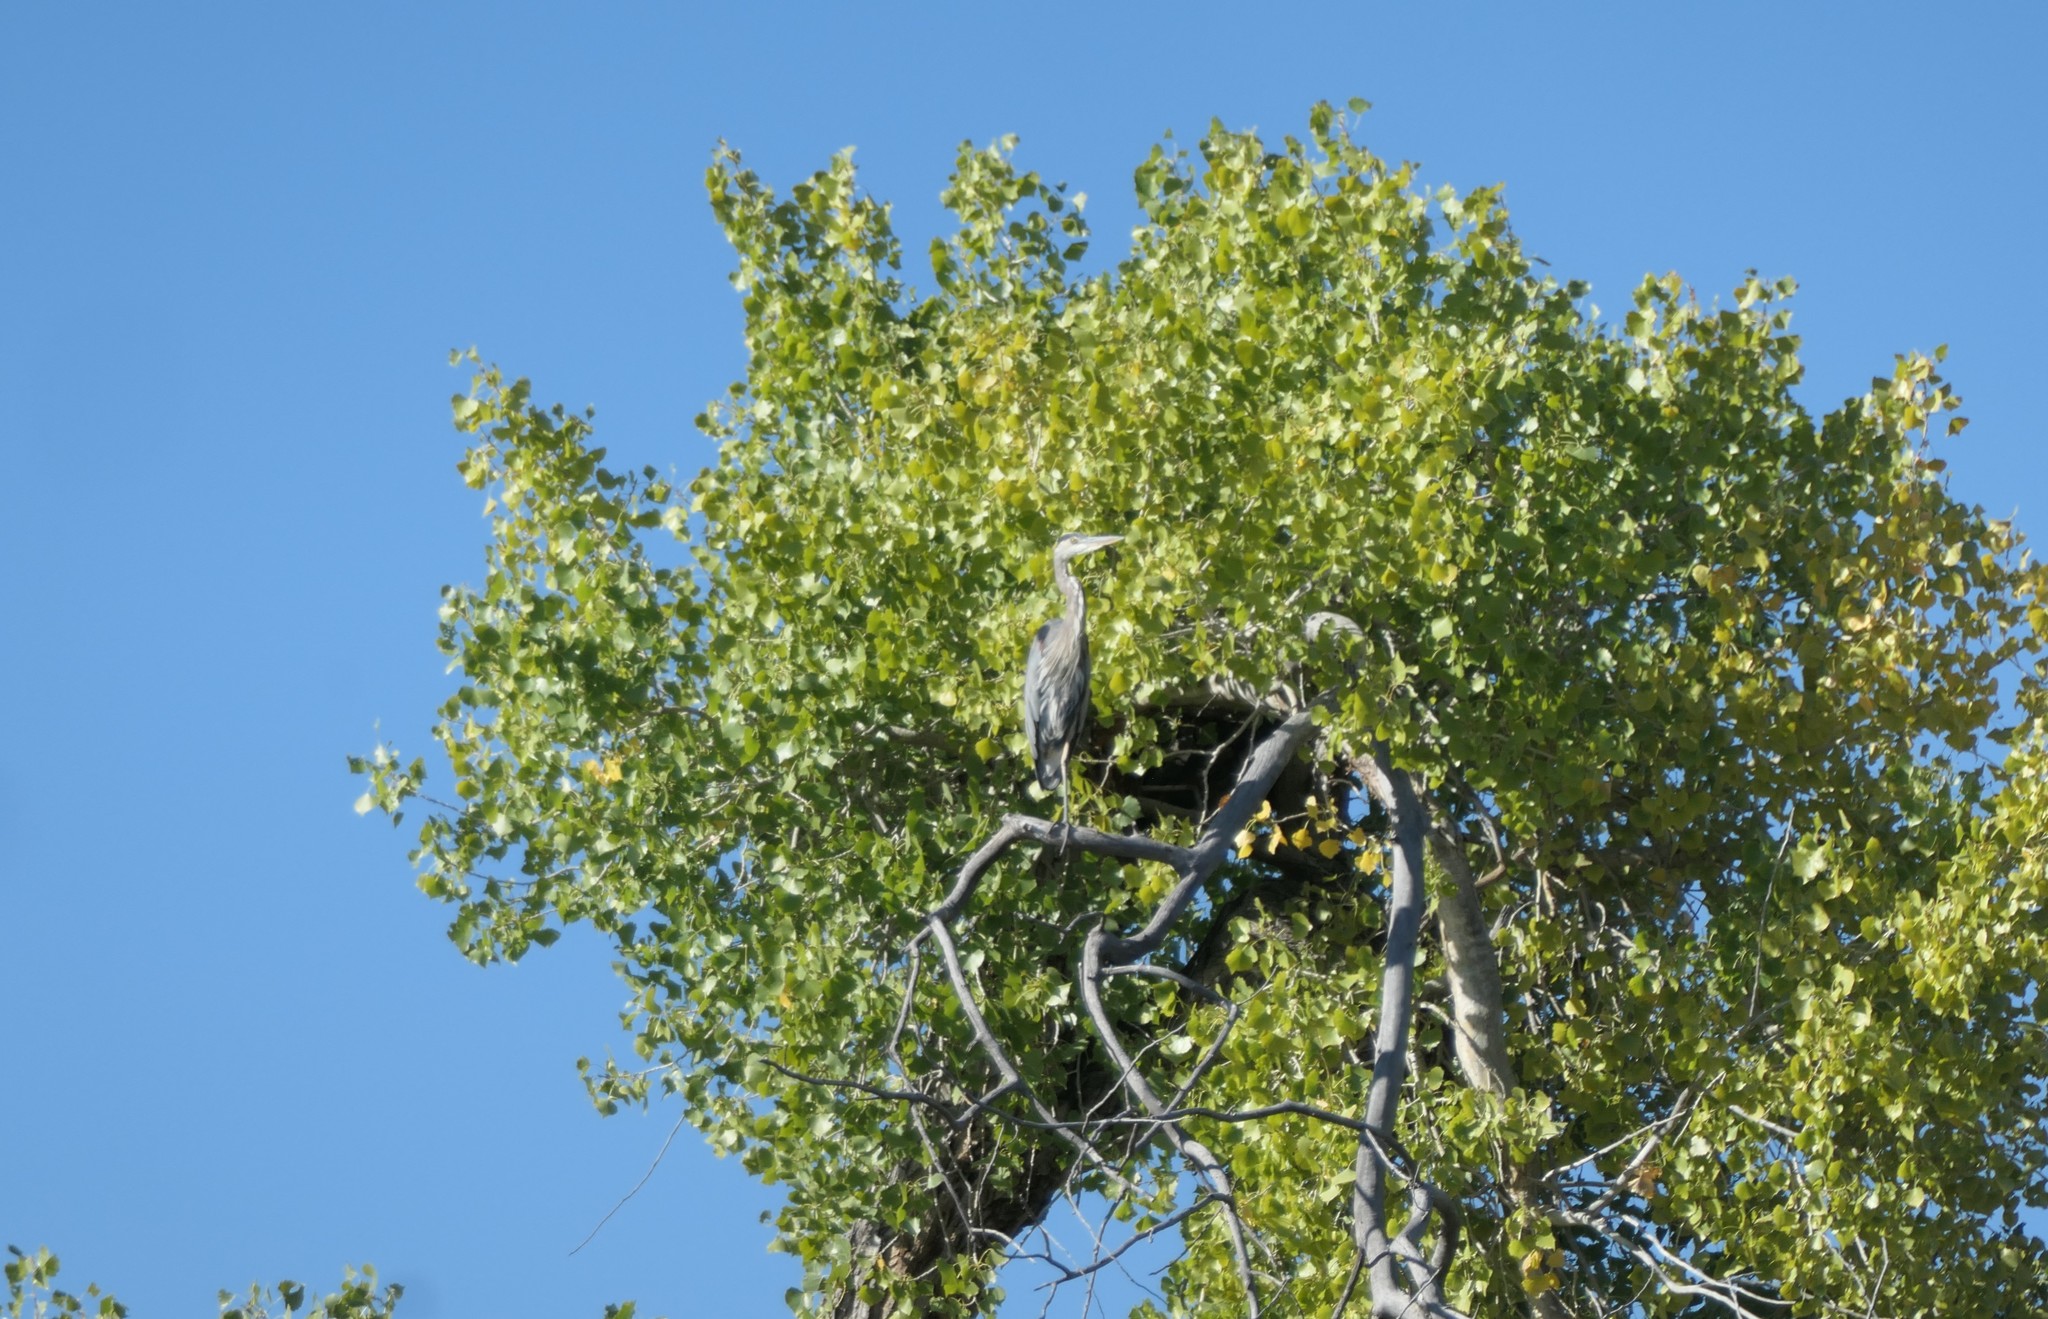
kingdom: Animalia
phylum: Chordata
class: Aves
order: Pelecaniformes
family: Ardeidae
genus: Ardea
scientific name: Ardea herodias
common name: Great blue heron
